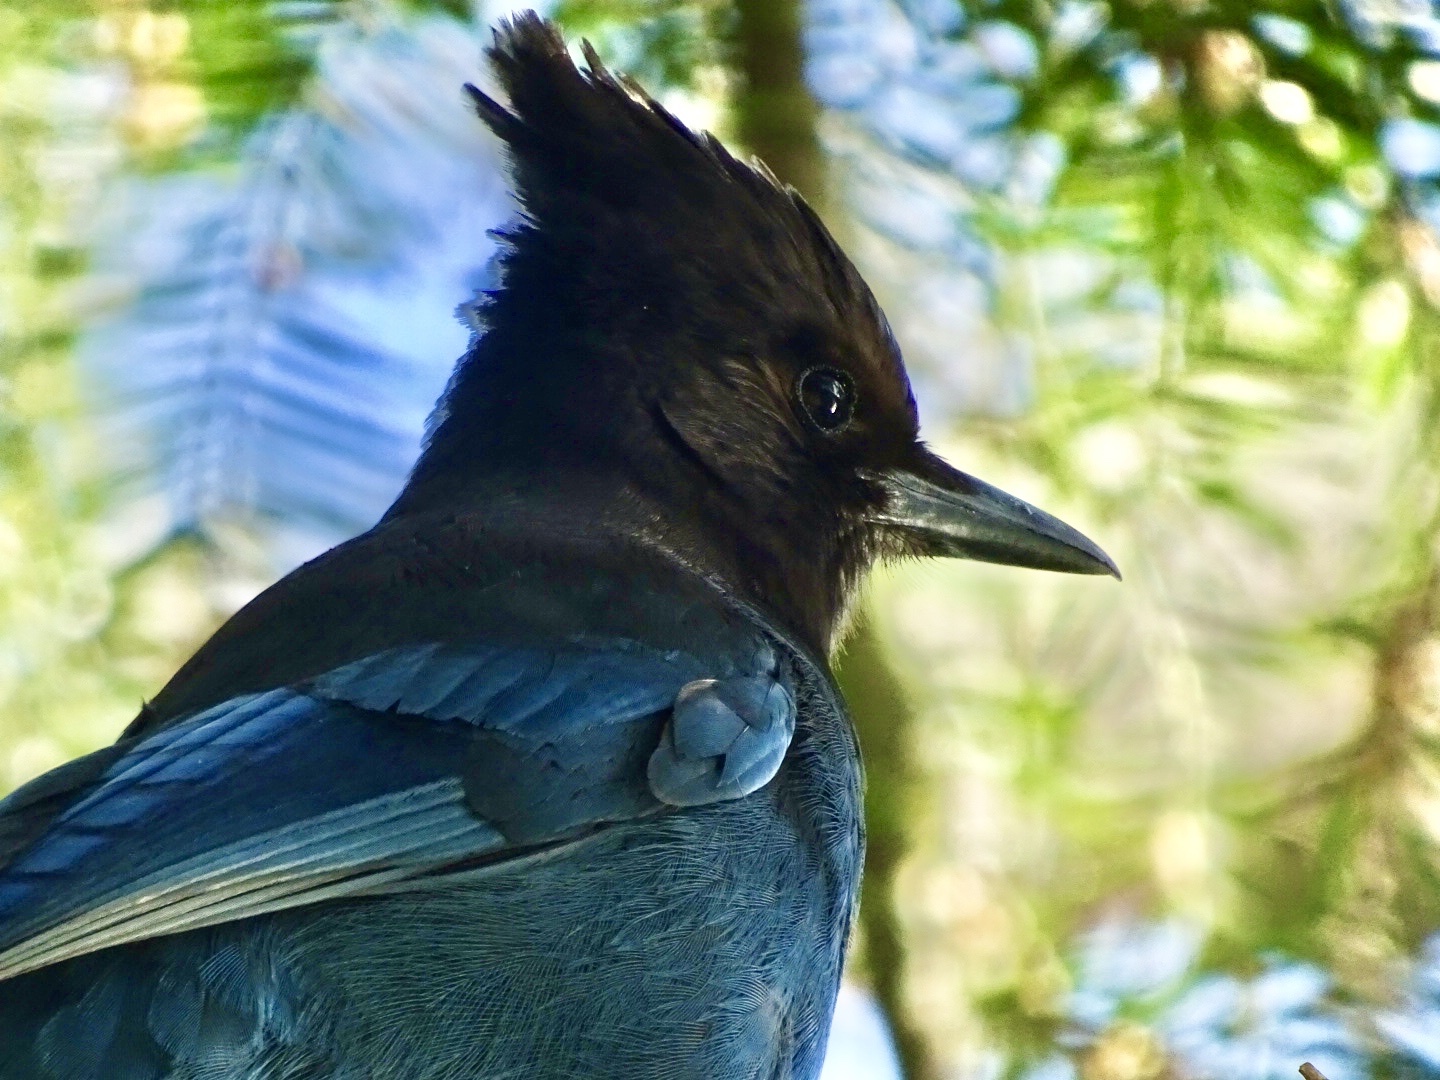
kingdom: Animalia
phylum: Chordata
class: Aves
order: Passeriformes
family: Corvidae
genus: Cyanocitta
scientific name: Cyanocitta stelleri
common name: Steller's jay
